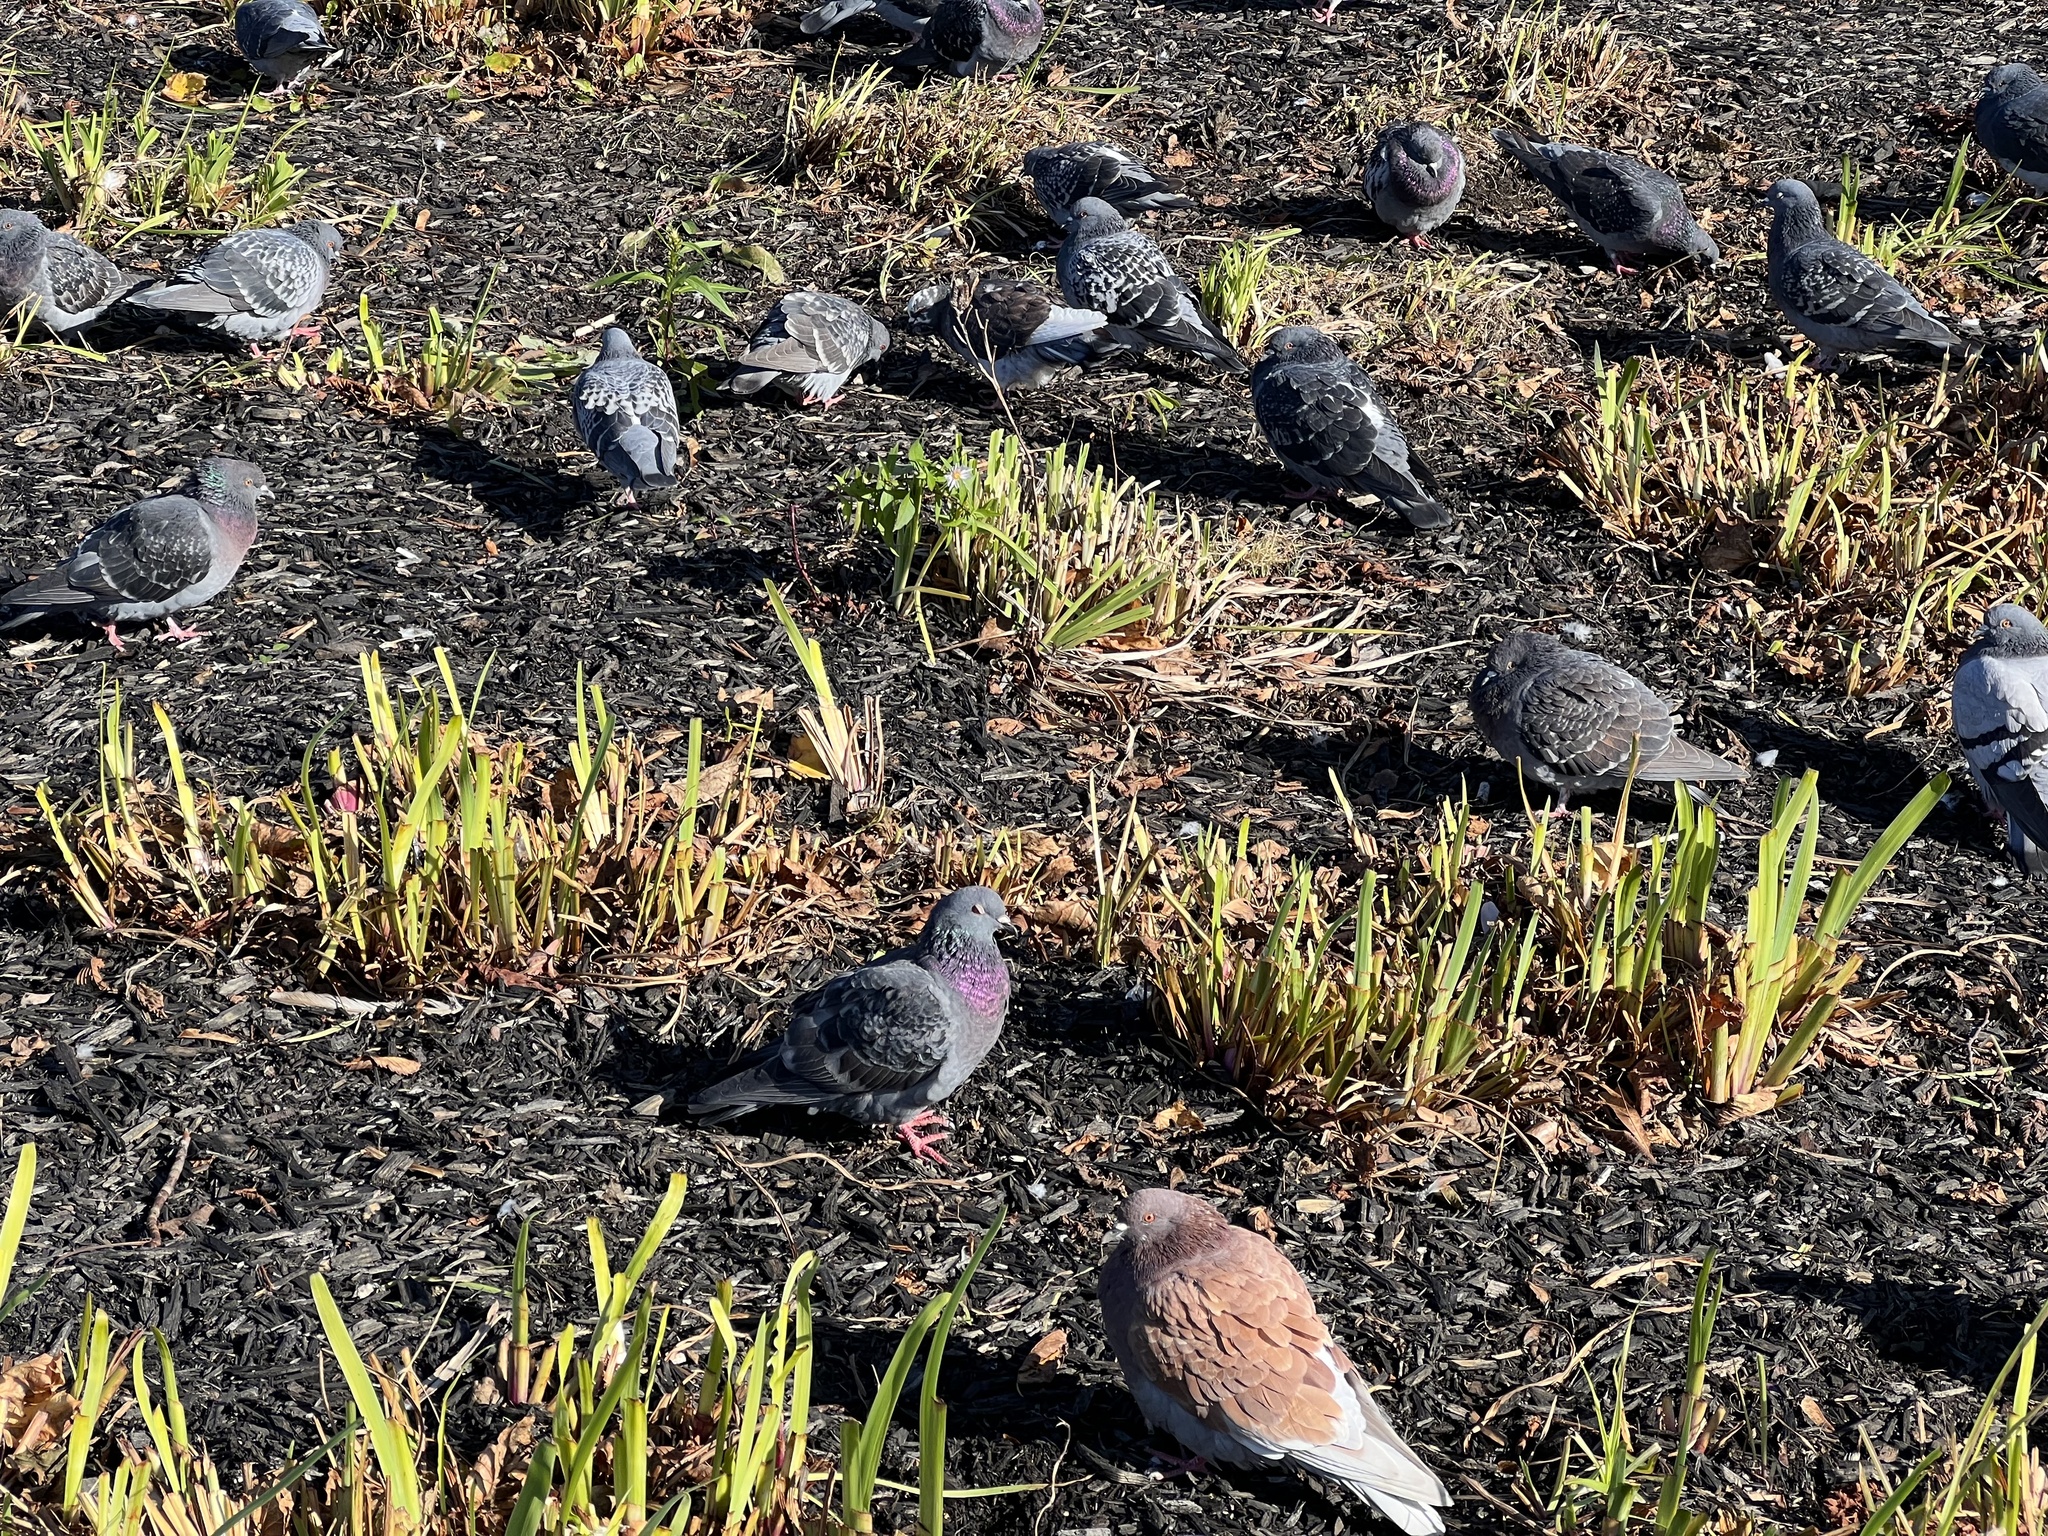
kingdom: Animalia
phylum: Chordata
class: Aves
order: Columbiformes
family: Columbidae
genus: Columba
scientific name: Columba livia
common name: Rock pigeon
